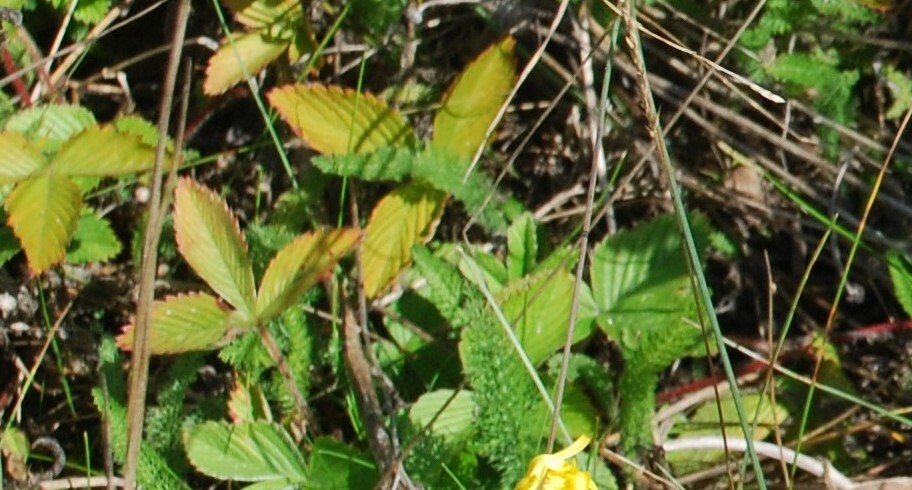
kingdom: Plantae
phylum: Tracheophyta
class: Magnoliopsida
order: Rosales
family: Rosaceae
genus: Fragaria
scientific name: Fragaria viridis
